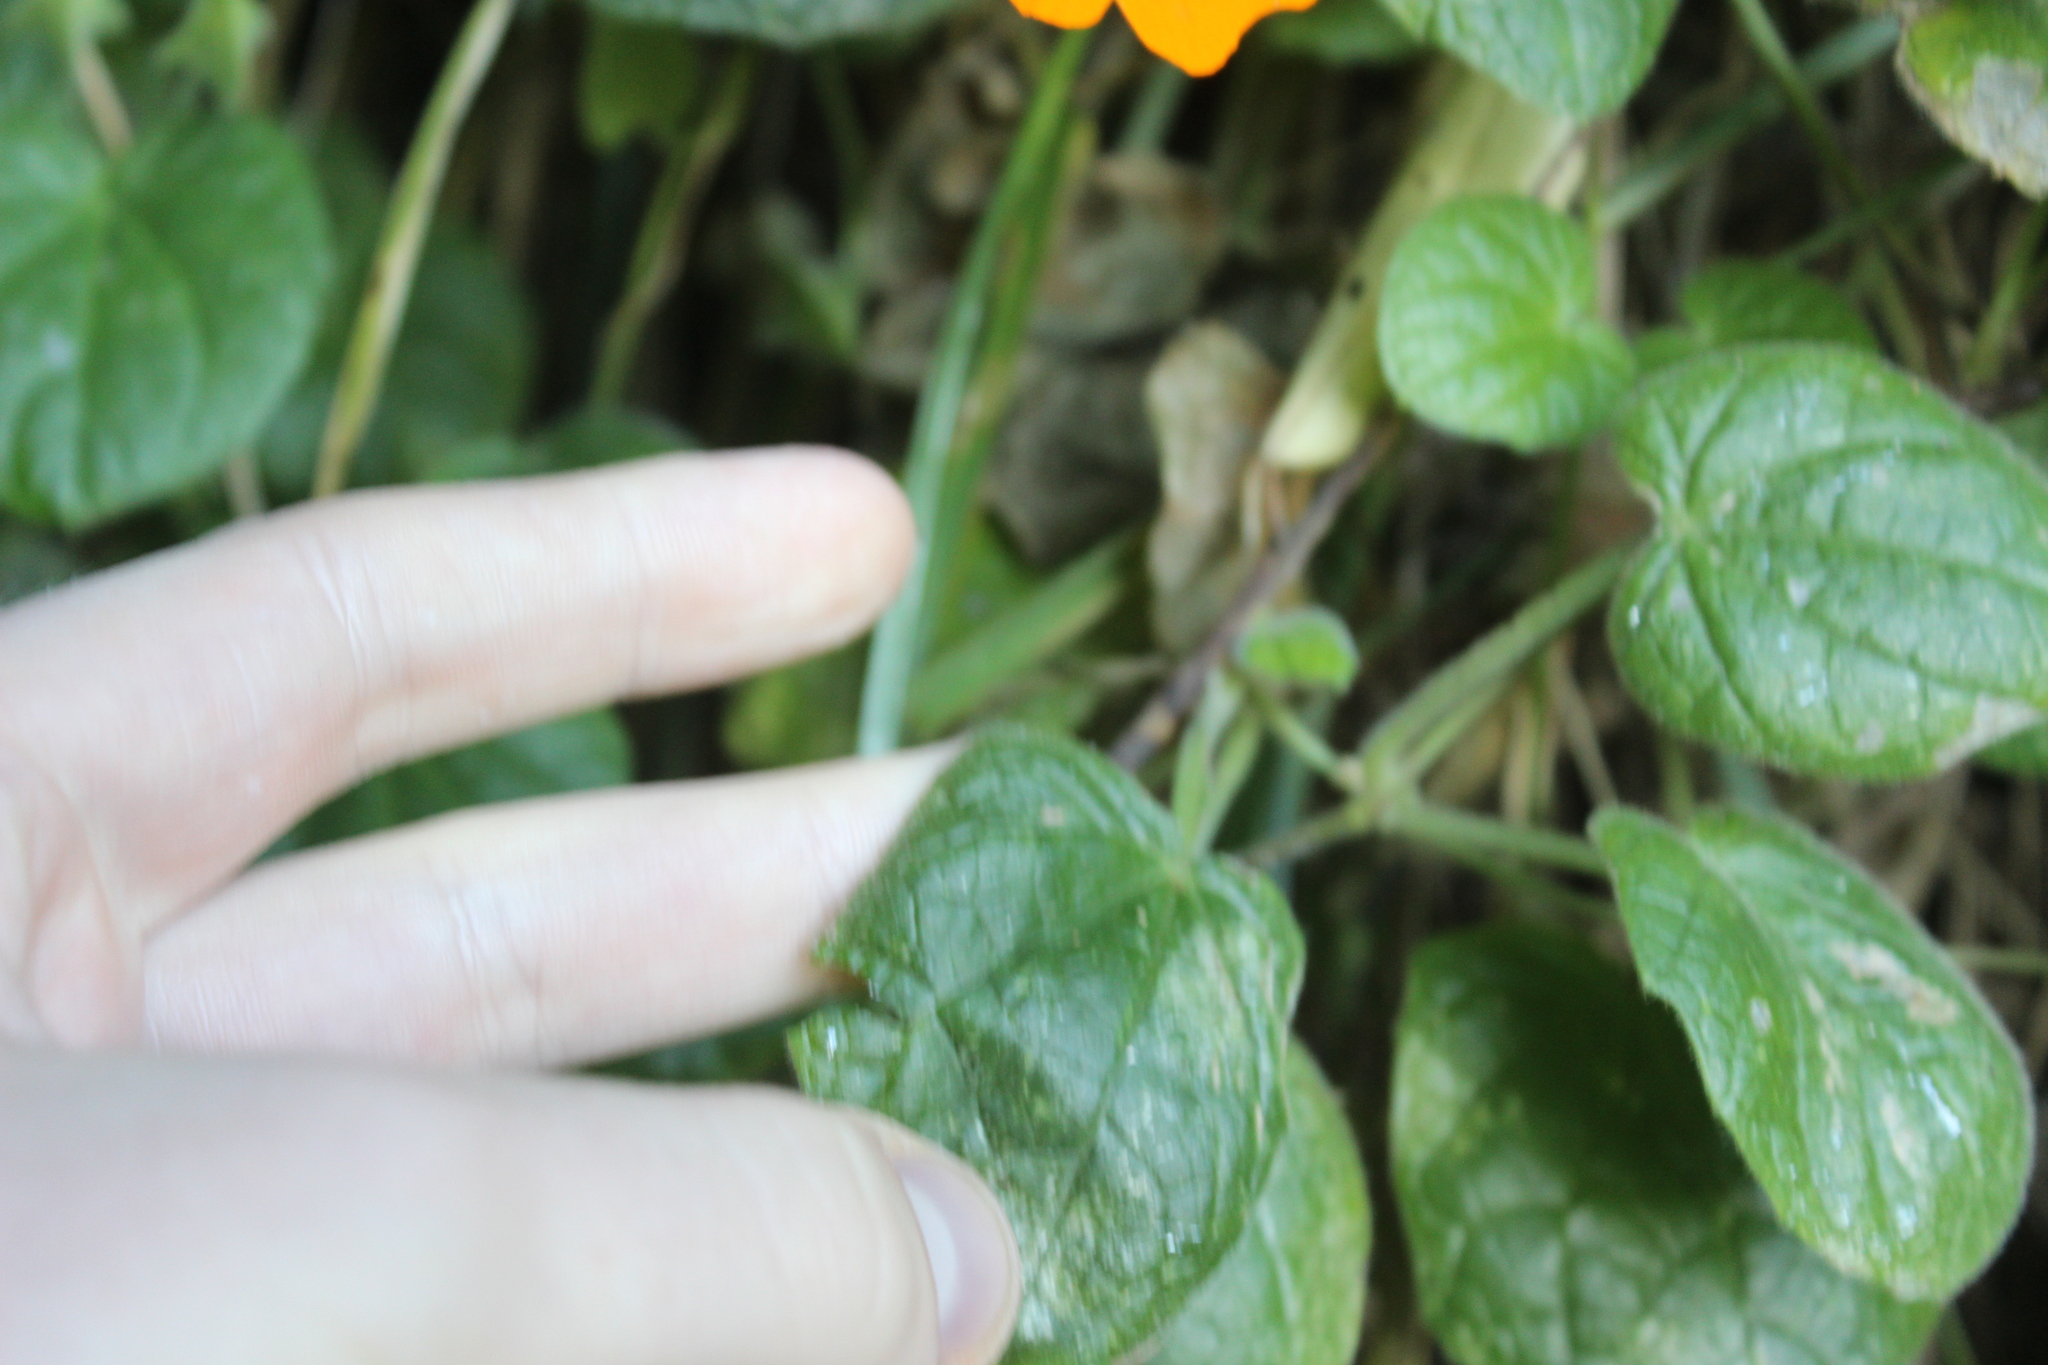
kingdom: Plantae
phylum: Tracheophyta
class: Magnoliopsida
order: Lamiales
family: Acanthaceae
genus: Thunbergia
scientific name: Thunbergia alata
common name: Blackeyed susan vine
